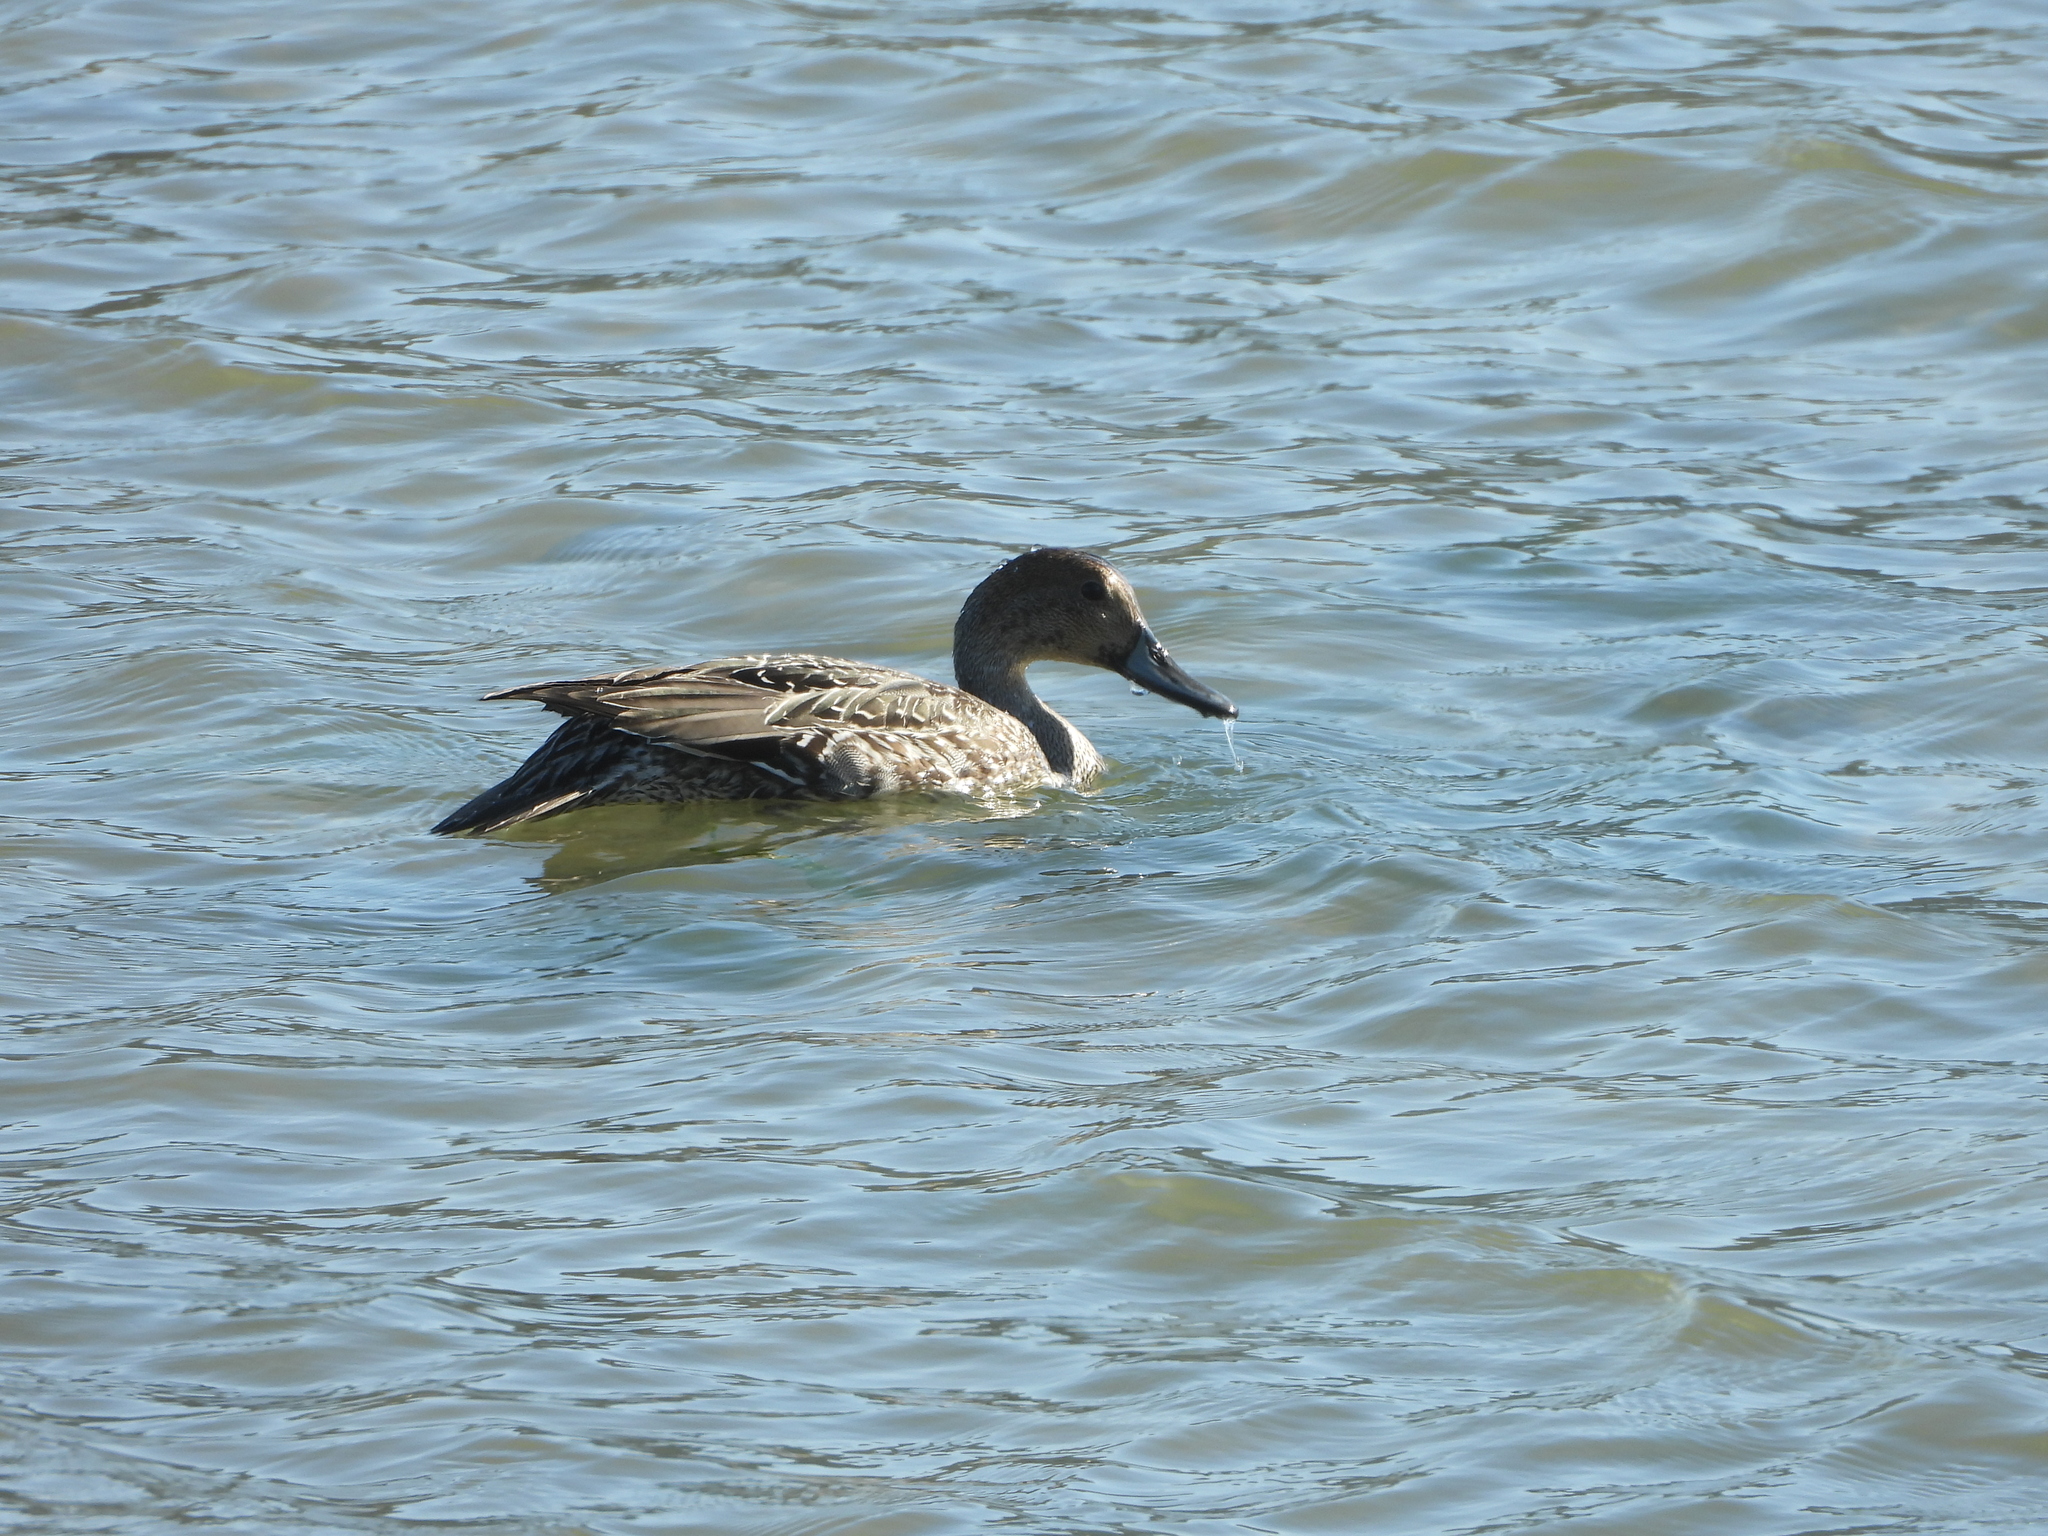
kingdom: Animalia
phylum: Chordata
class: Aves
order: Anseriformes
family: Anatidae
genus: Anas
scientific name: Anas acuta
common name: Northern pintail
